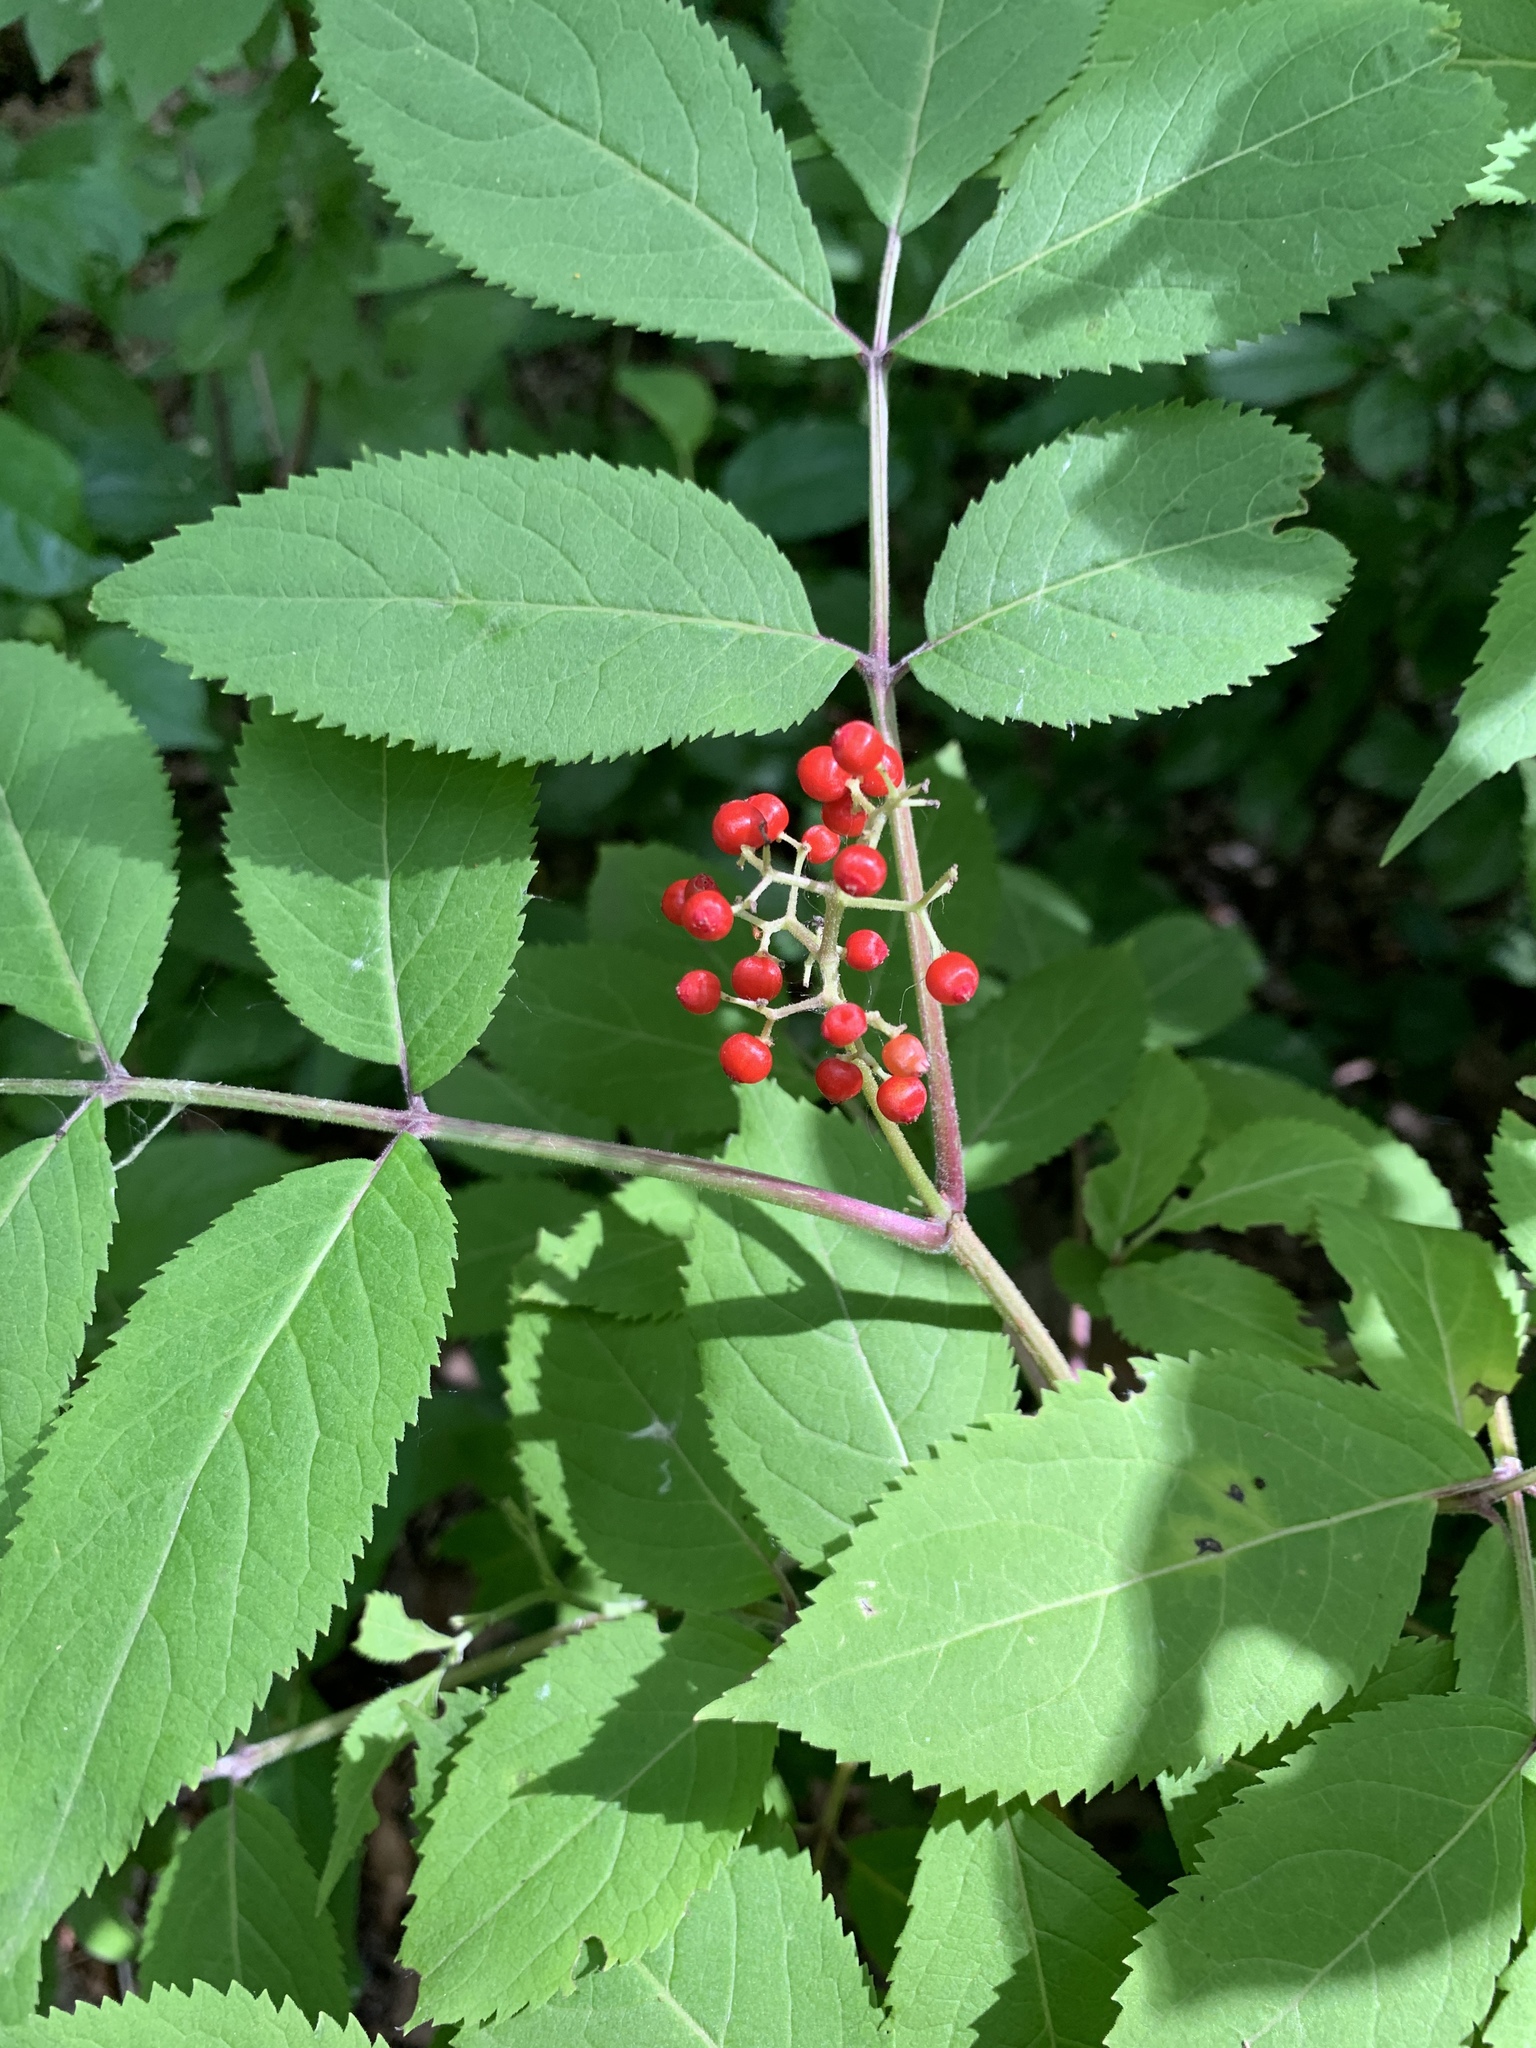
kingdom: Plantae
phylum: Tracheophyta
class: Magnoliopsida
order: Dipsacales
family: Viburnaceae
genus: Sambucus
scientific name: Sambucus racemosa
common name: Red-berried elder
